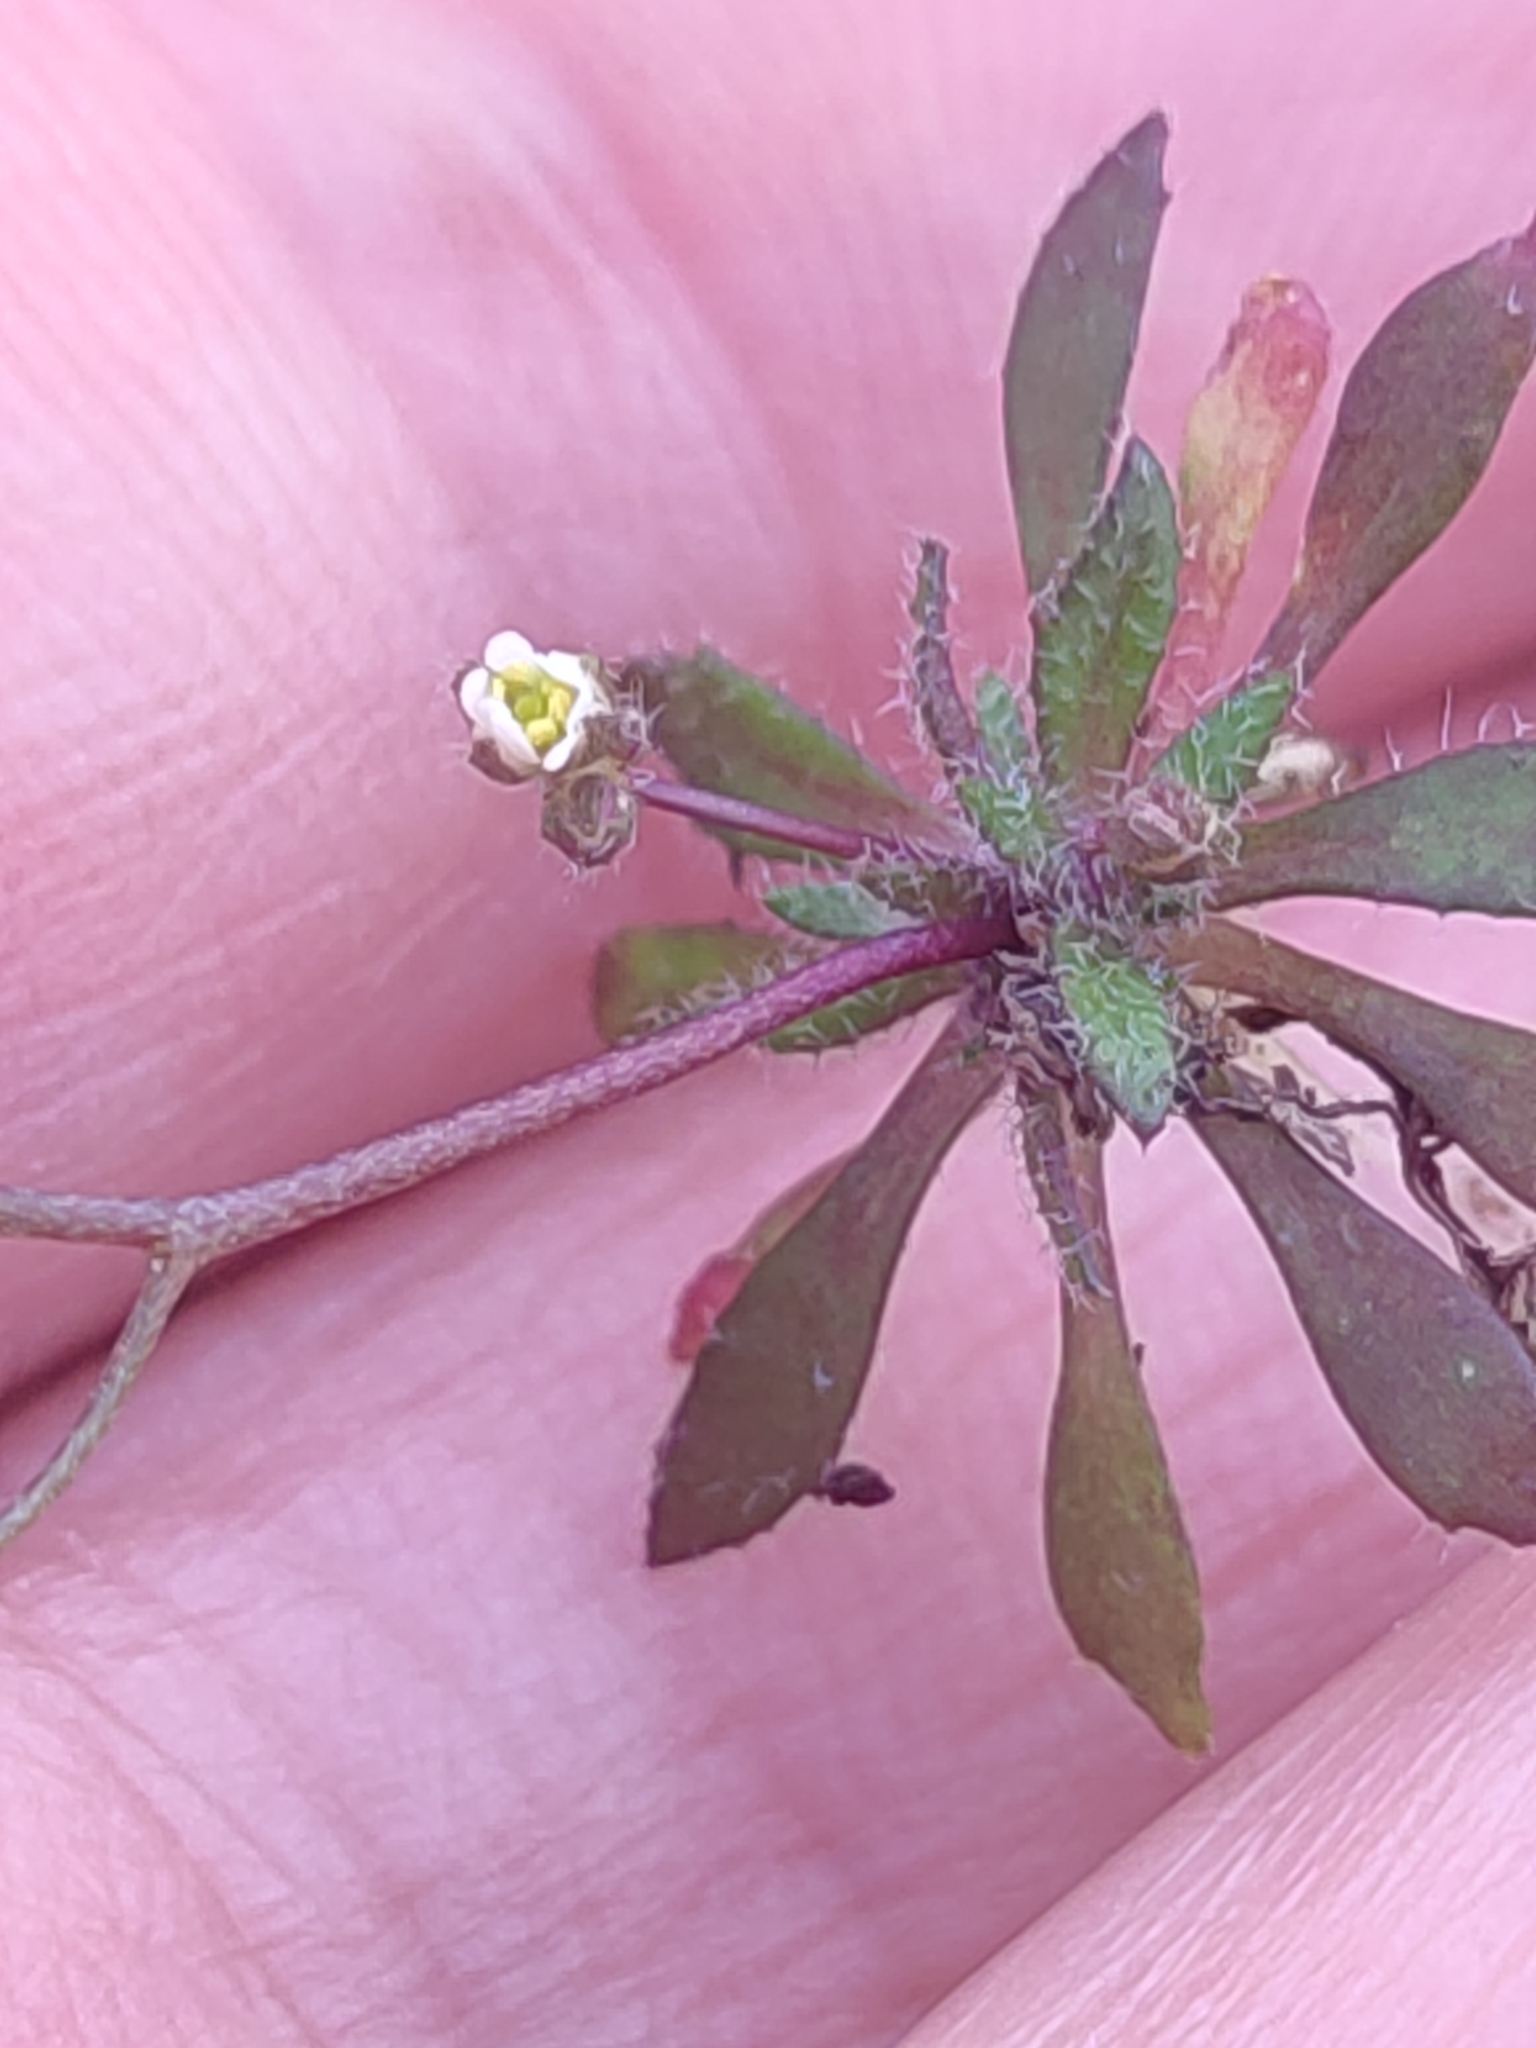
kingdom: Plantae
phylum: Tracheophyta
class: Magnoliopsida
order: Brassicales
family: Brassicaceae
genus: Draba
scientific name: Draba verna
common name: Spring draba
